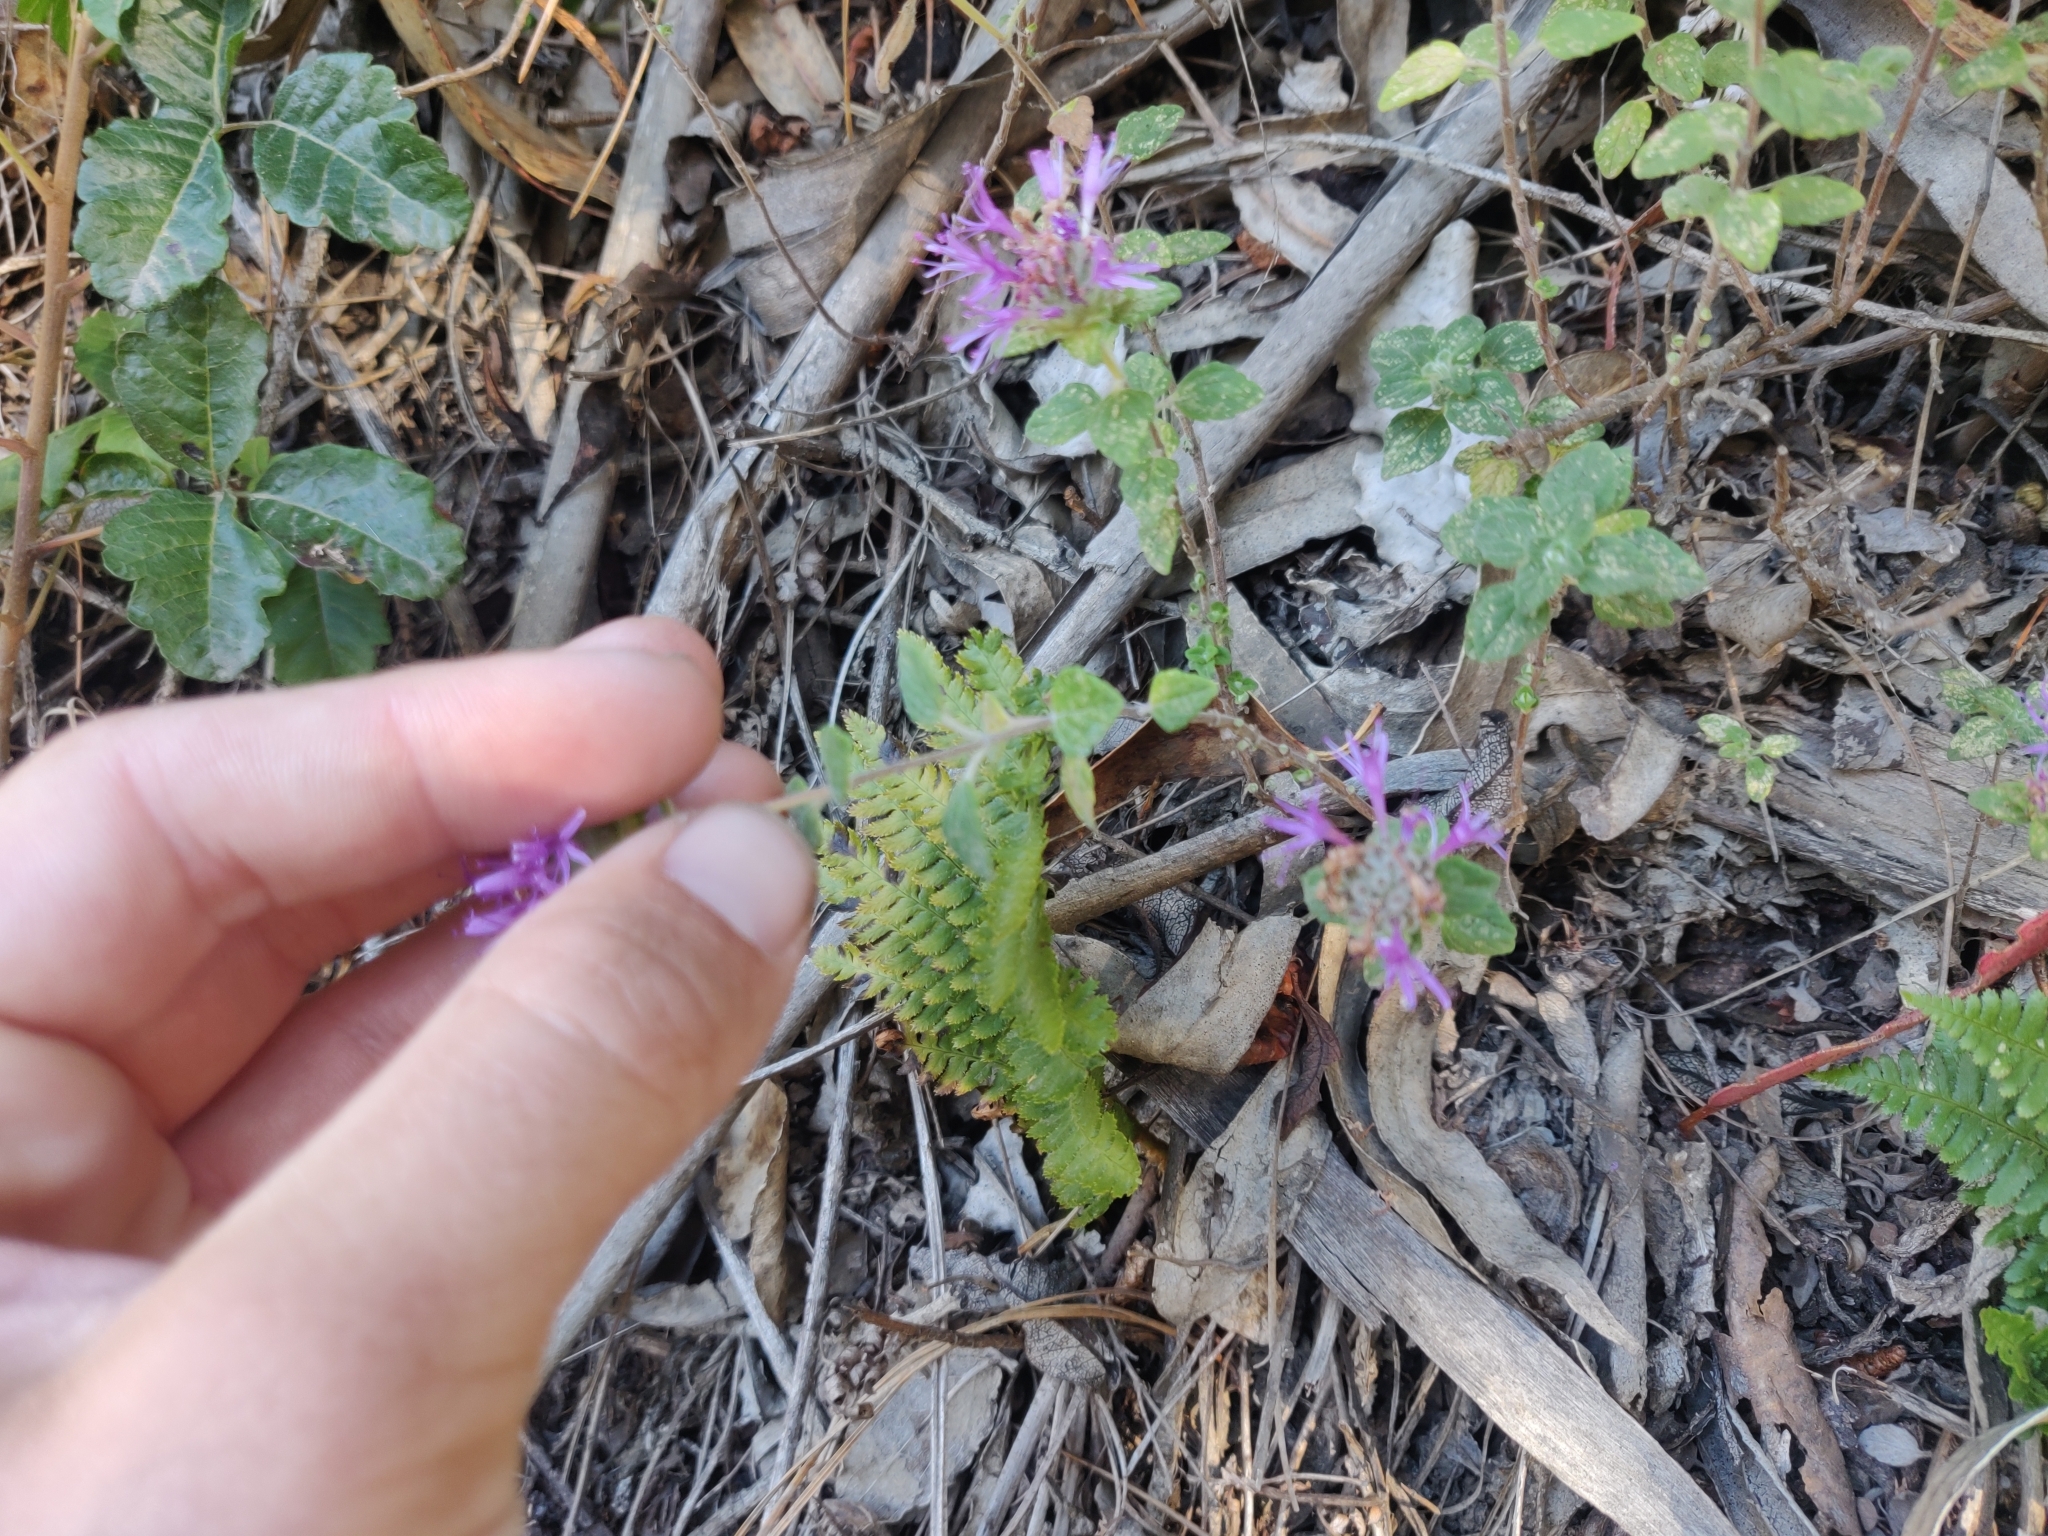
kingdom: Plantae
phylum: Tracheophyta
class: Magnoliopsida
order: Lamiales
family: Lamiaceae
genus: Monardella
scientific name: Monardella odoratissima
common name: Pacific monardella
